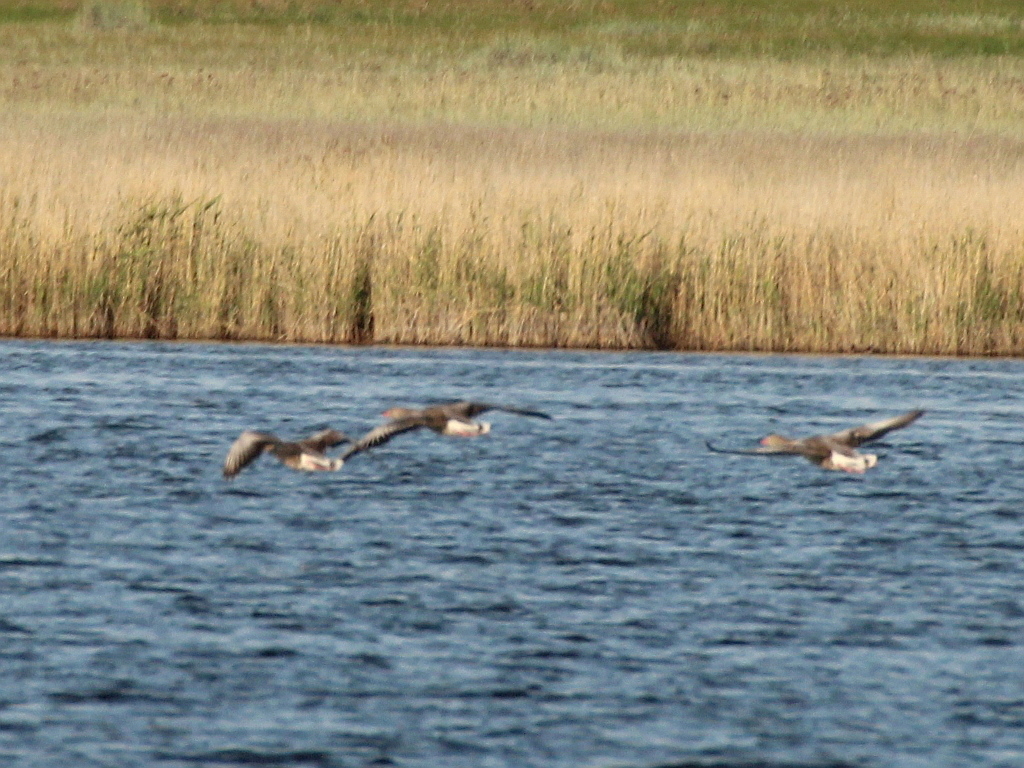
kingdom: Animalia
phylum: Chordata
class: Aves
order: Anseriformes
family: Anatidae
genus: Anser
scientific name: Anser anser
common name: Greylag goose
